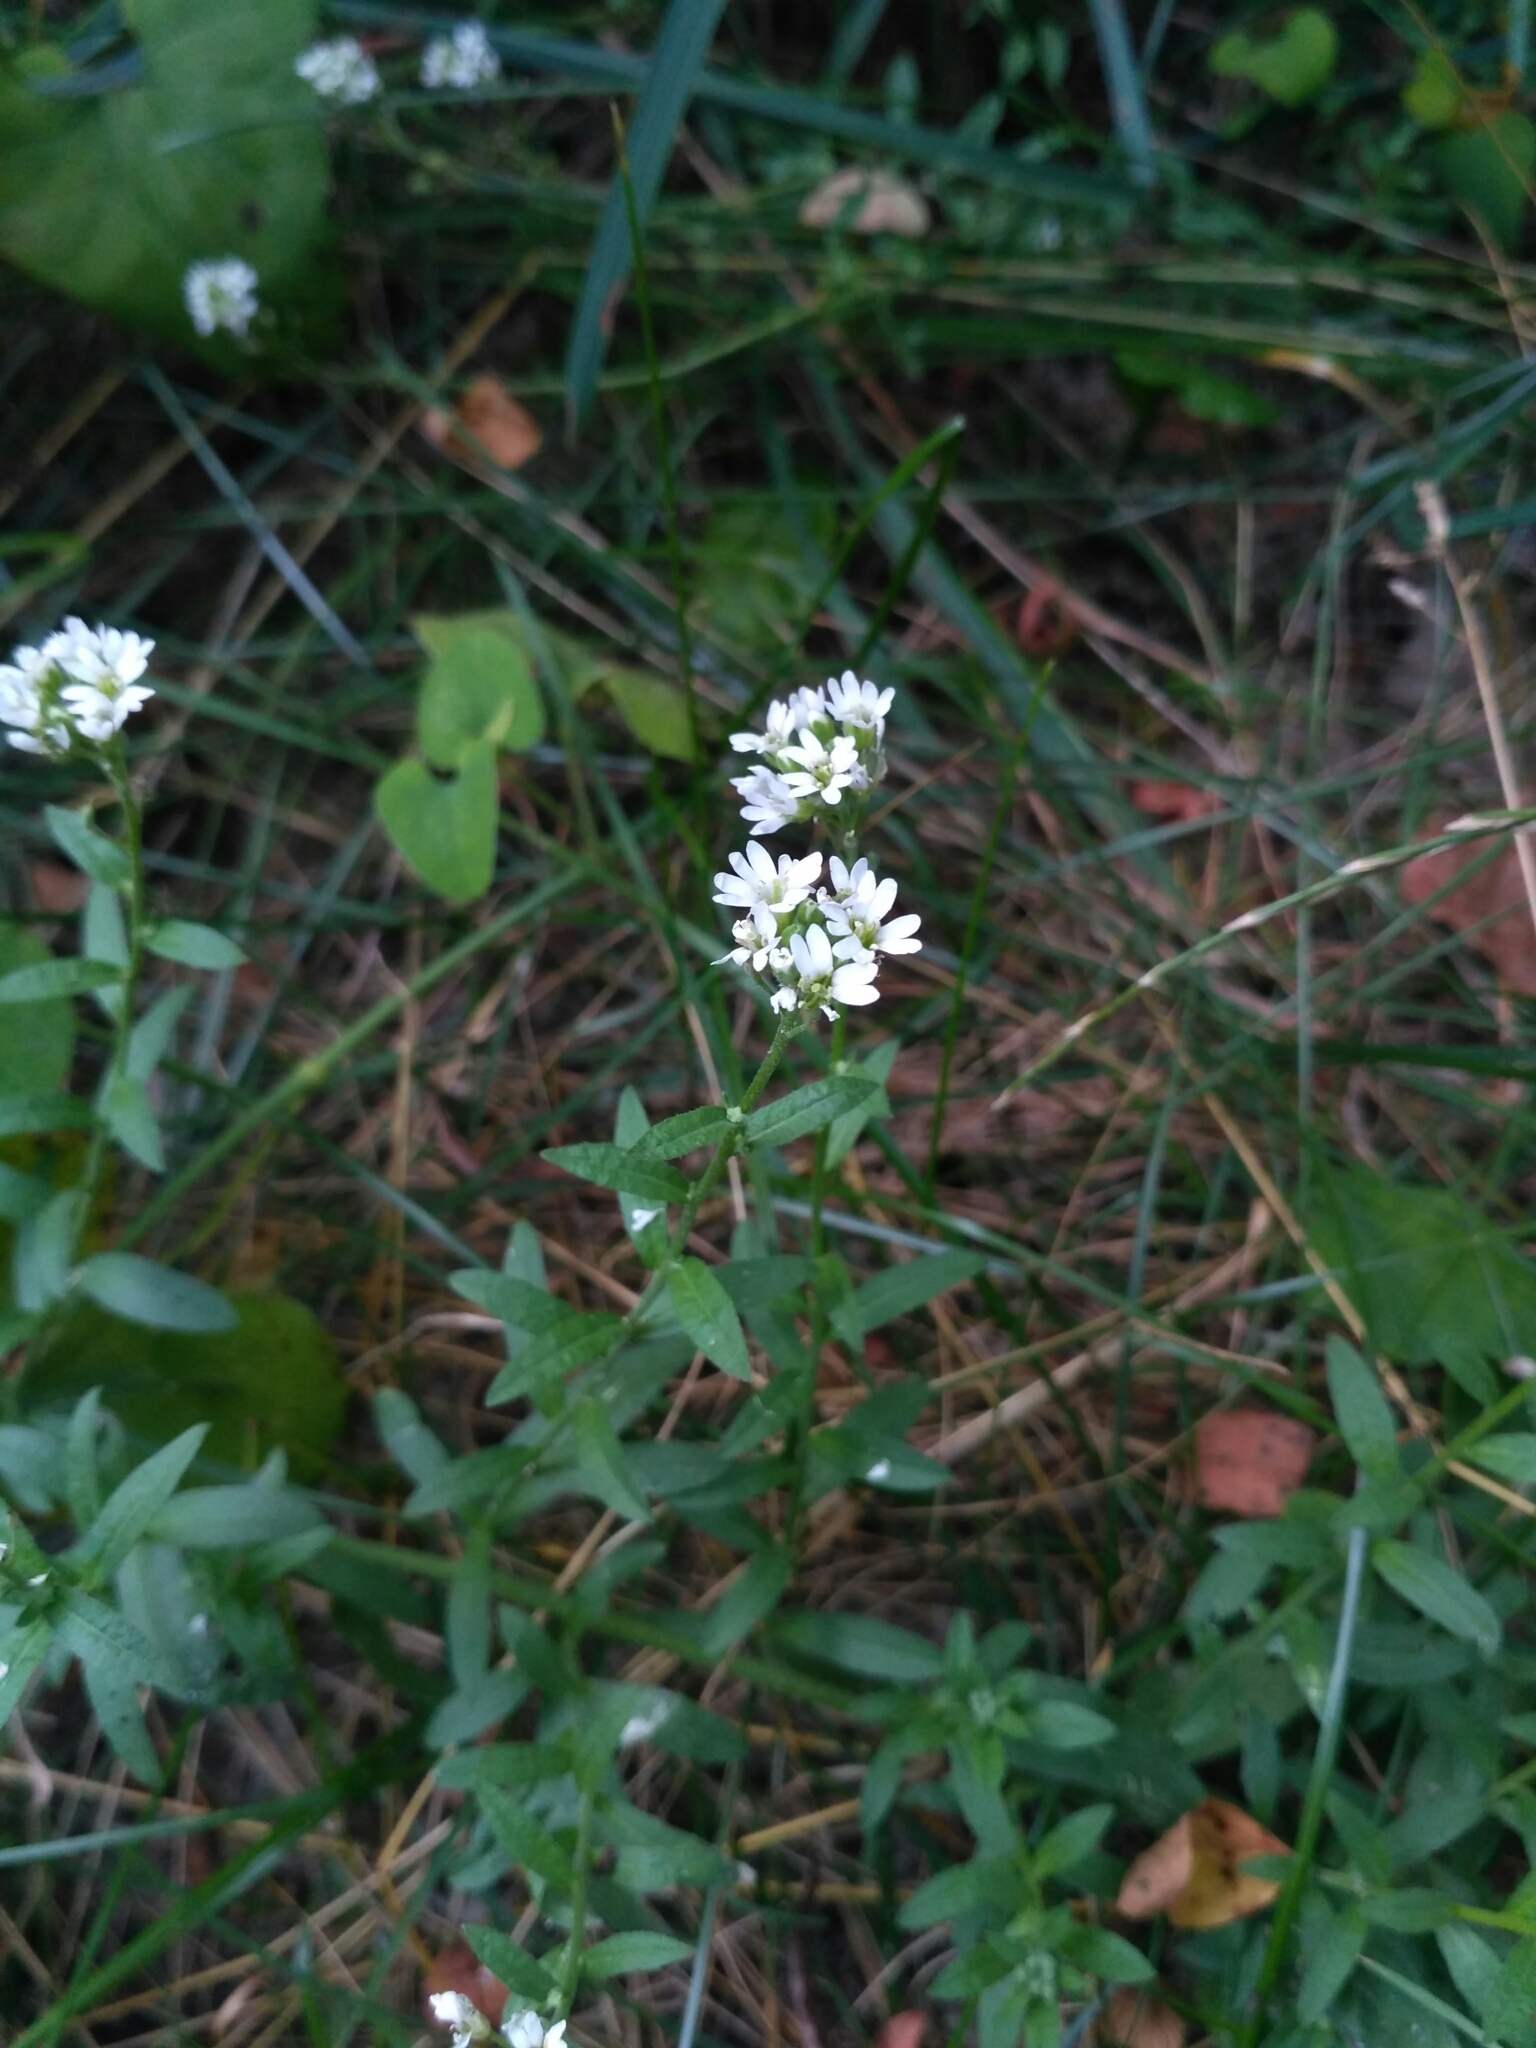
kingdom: Plantae
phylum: Tracheophyta
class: Magnoliopsida
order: Brassicales
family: Brassicaceae
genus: Berteroa
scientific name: Berteroa incana
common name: Hoary alison
